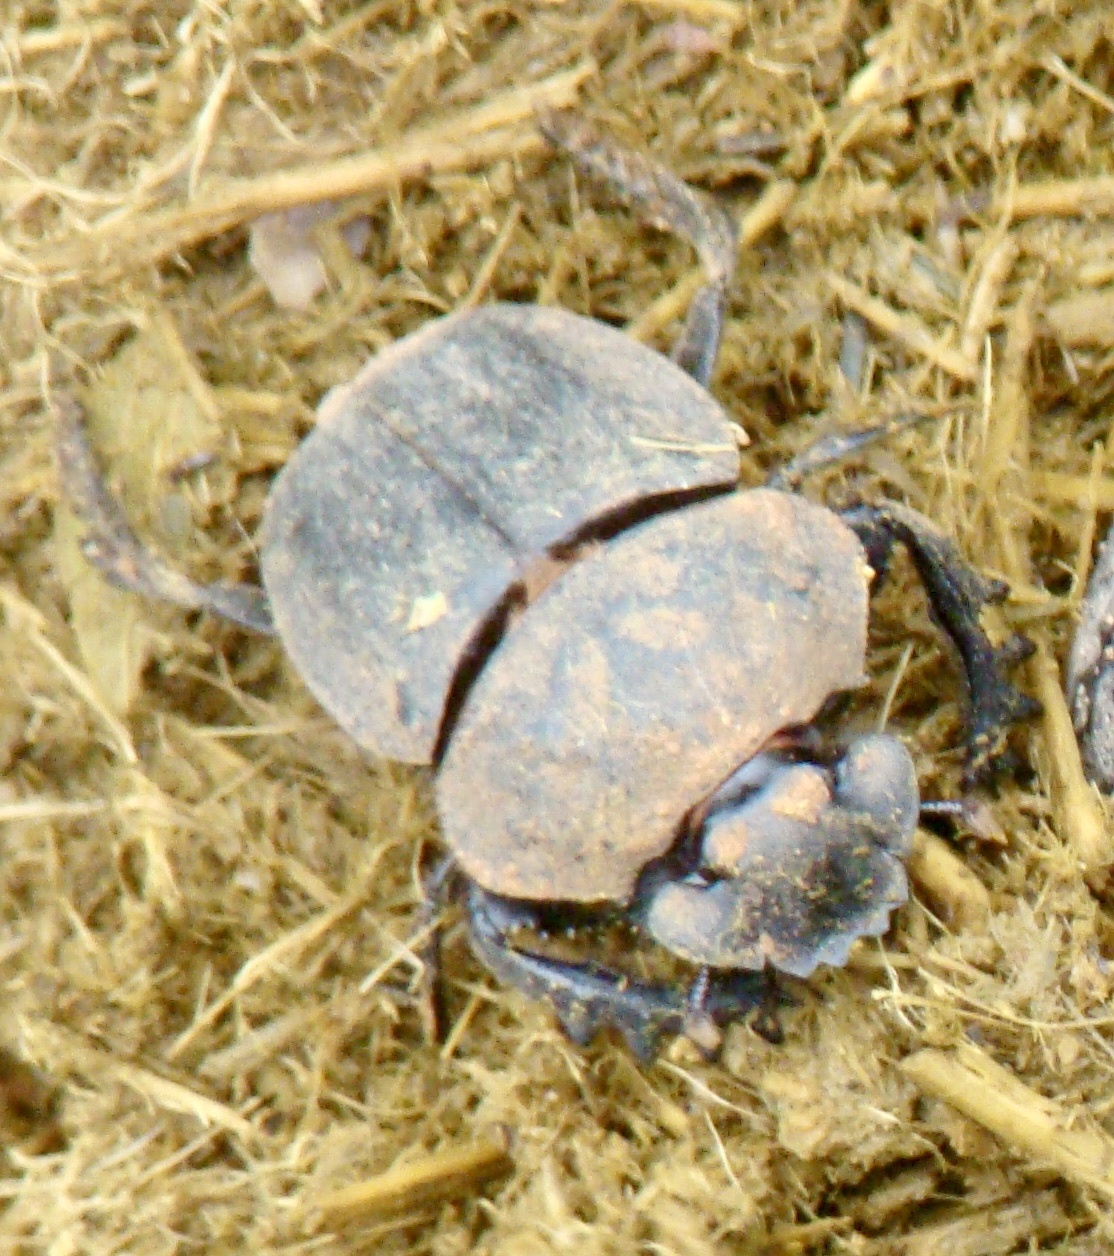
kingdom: Animalia
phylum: Arthropoda
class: Insecta
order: Coleoptera
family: Scarabaeidae
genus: Pachylomera
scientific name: Pachylomera femoralis
